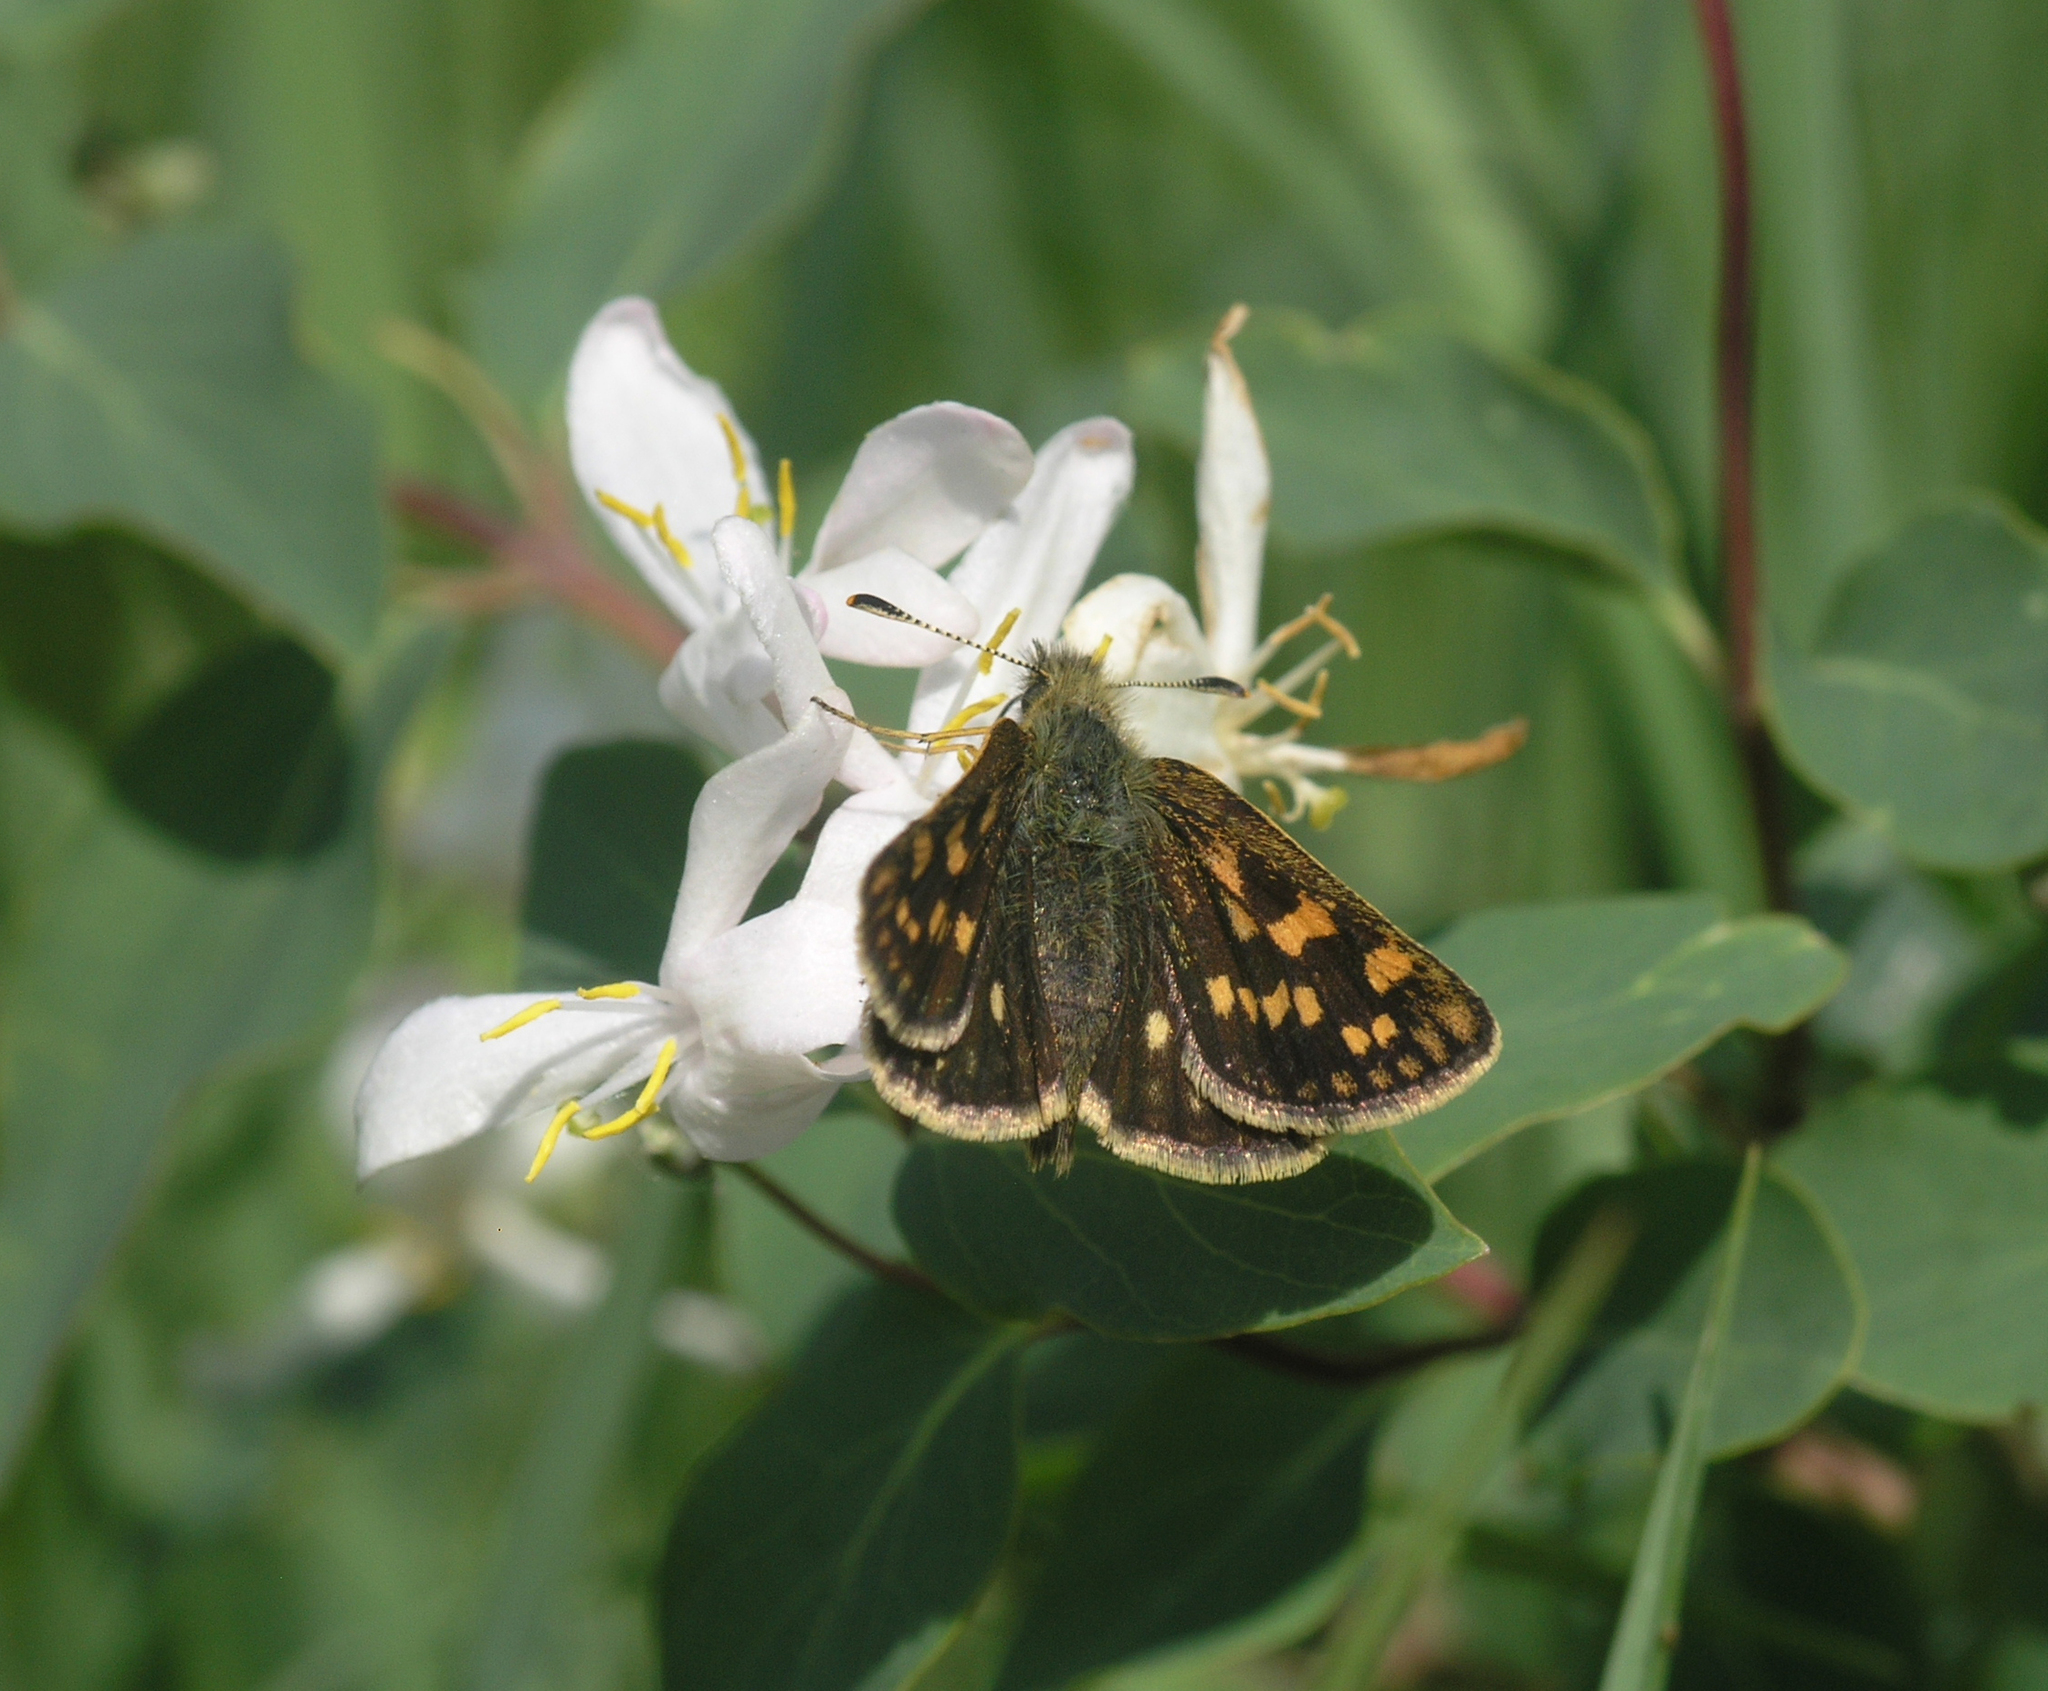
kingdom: Animalia
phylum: Arthropoda
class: Insecta
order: Lepidoptera
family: Hesperiidae
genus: Carterocephalus
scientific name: Carterocephalus palaemon
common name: Chequered skipper
